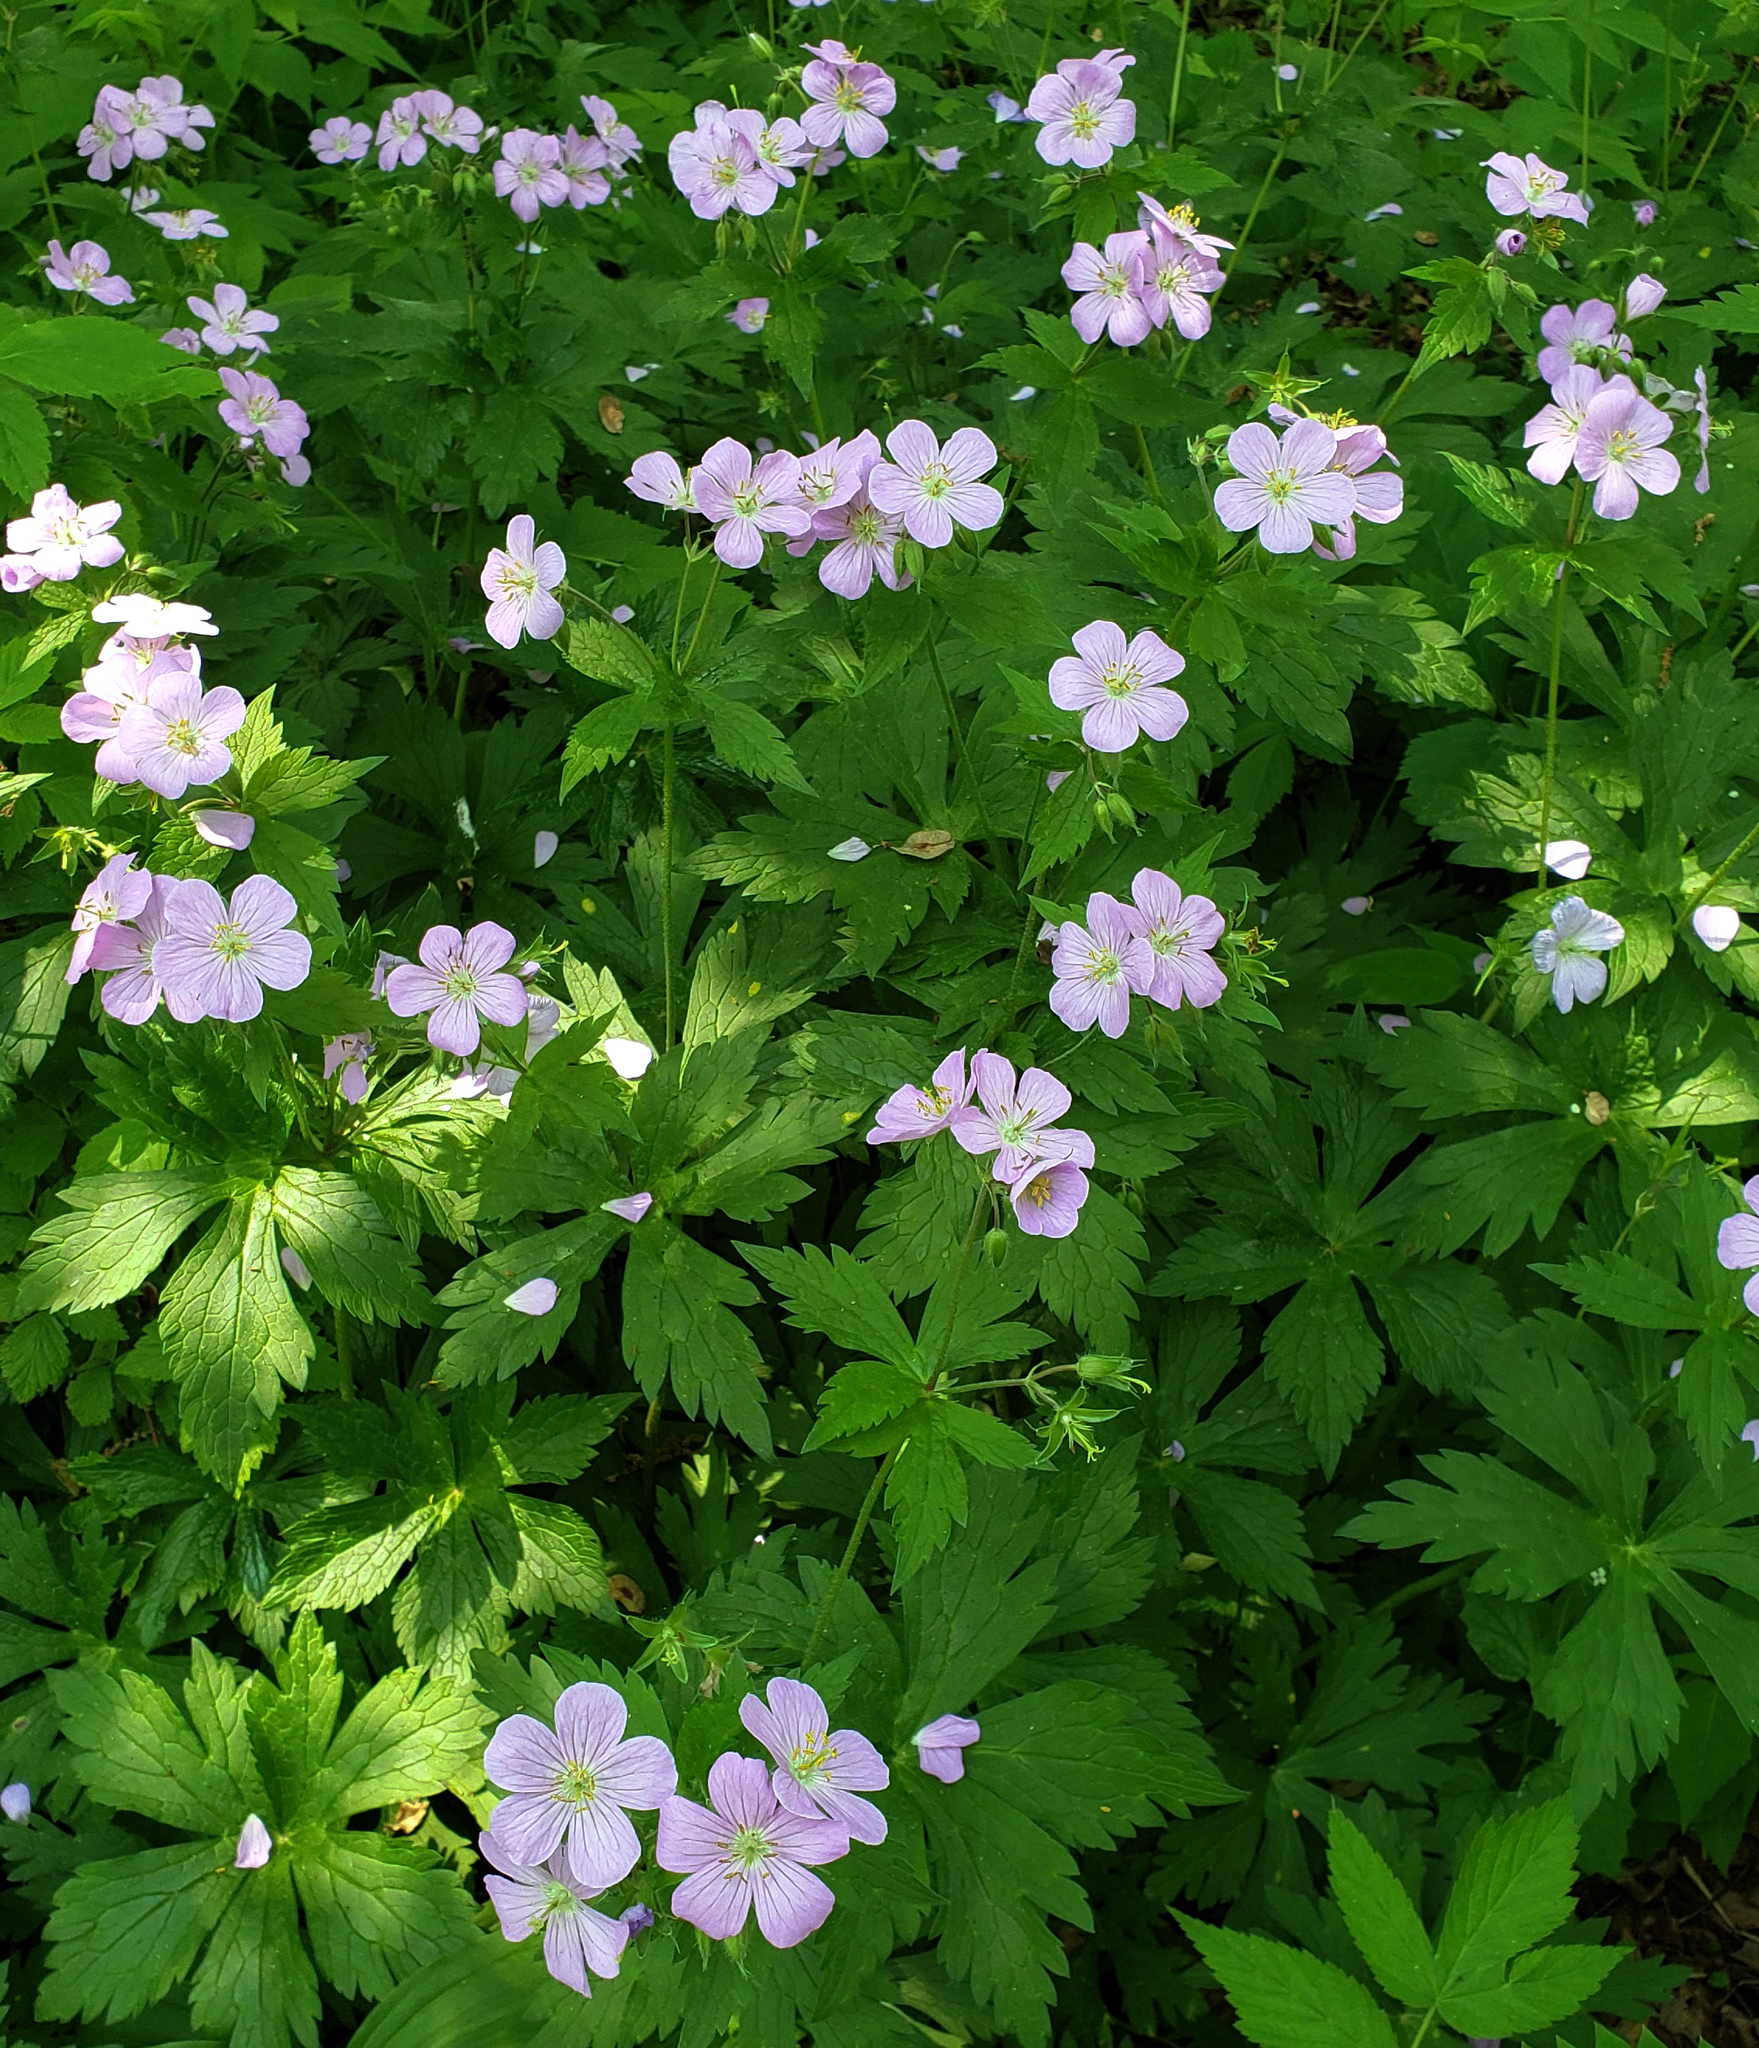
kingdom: Plantae
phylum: Tracheophyta
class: Magnoliopsida
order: Geraniales
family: Geraniaceae
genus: Geranium
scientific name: Geranium maculatum
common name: Spotted geranium
